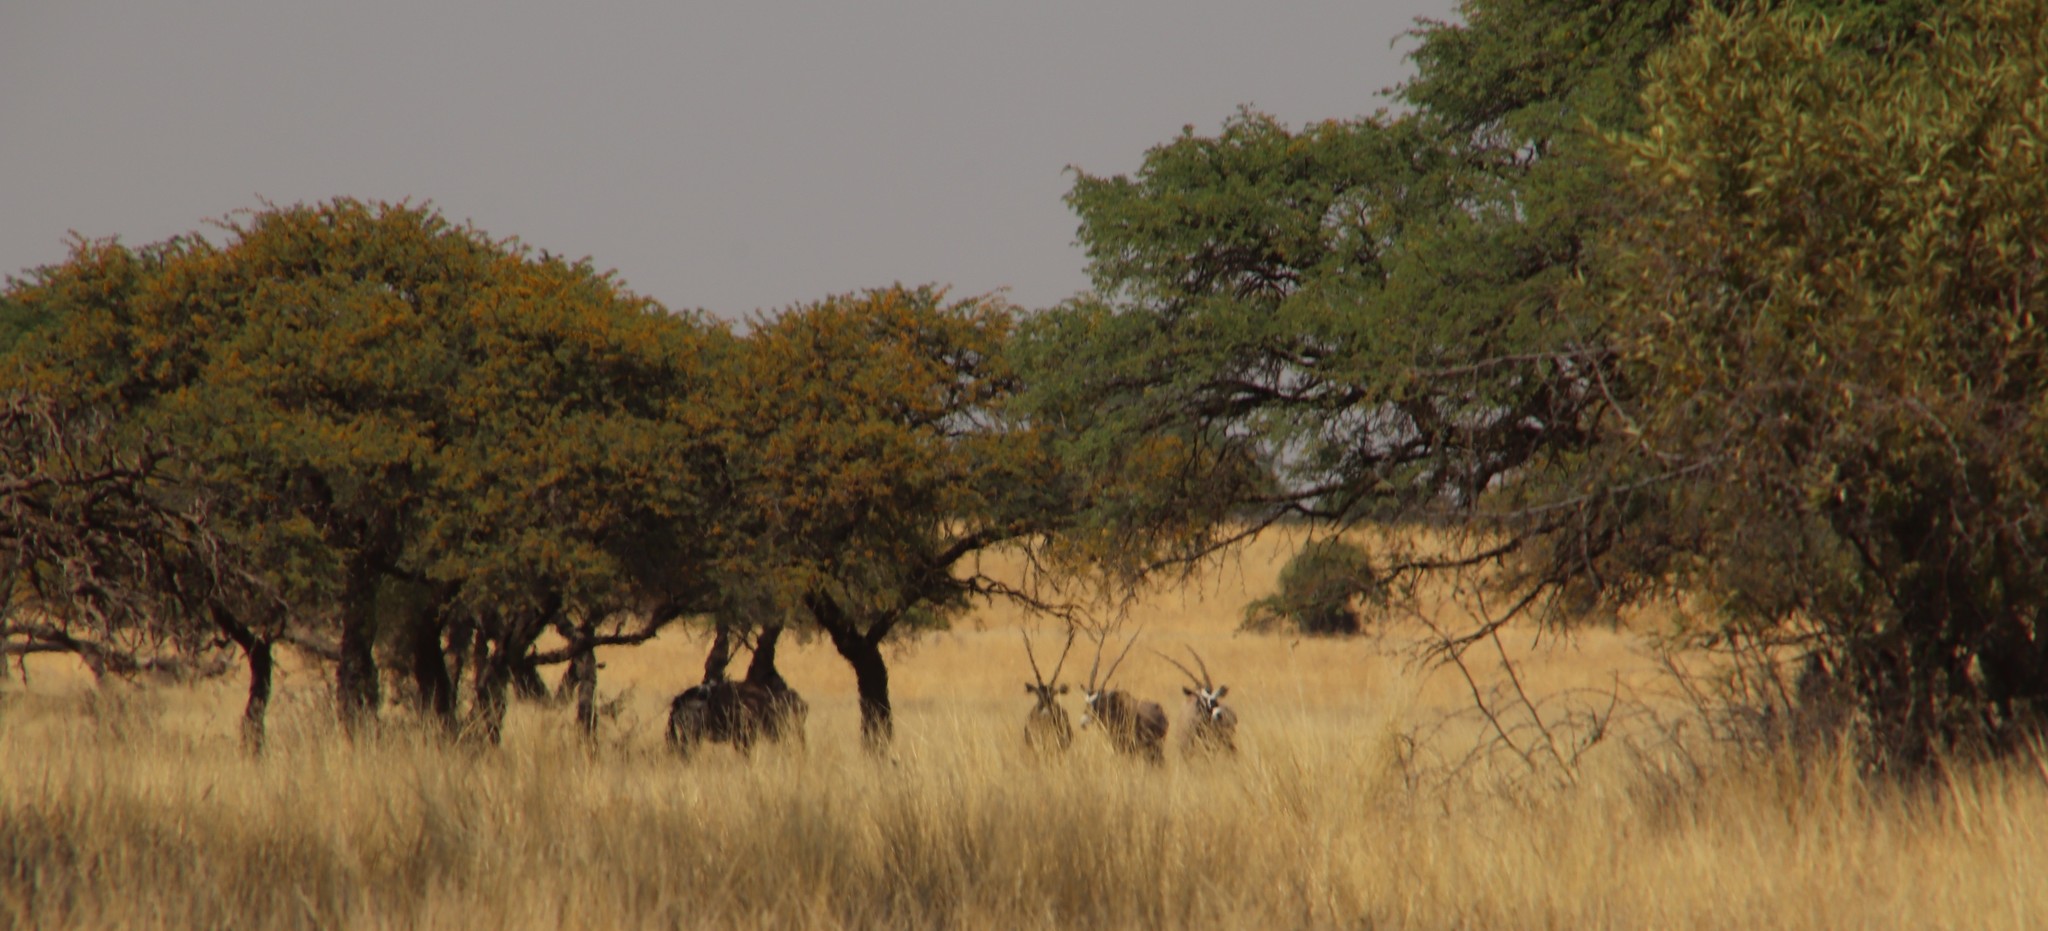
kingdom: Animalia
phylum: Chordata
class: Mammalia
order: Artiodactyla
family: Bovidae
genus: Oryx
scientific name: Oryx gazella
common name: Gemsbok
